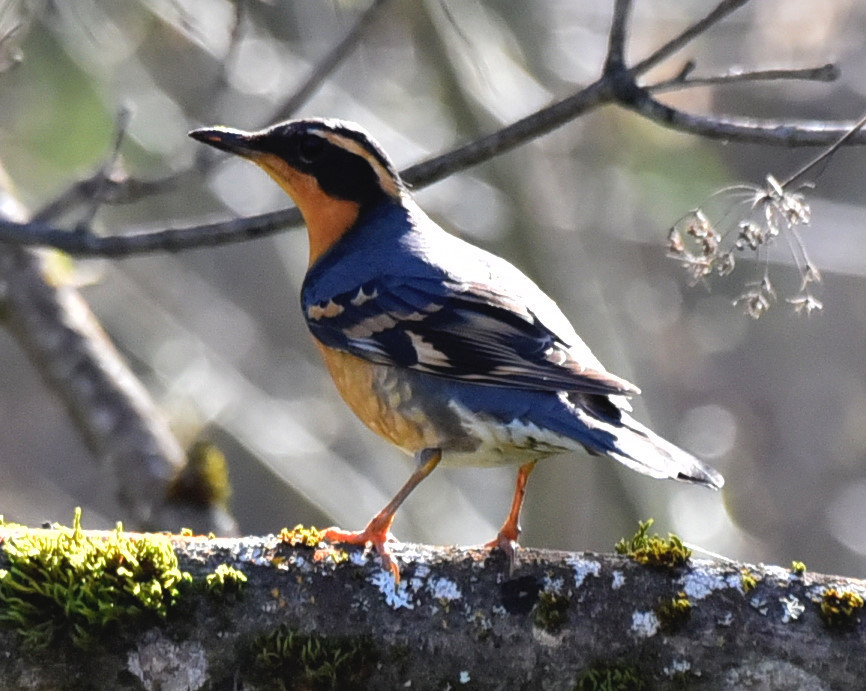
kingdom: Animalia
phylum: Chordata
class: Aves
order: Passeriformes
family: Turdidae
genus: Ixoreus
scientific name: Ixoreus naevius
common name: Varied thrush
